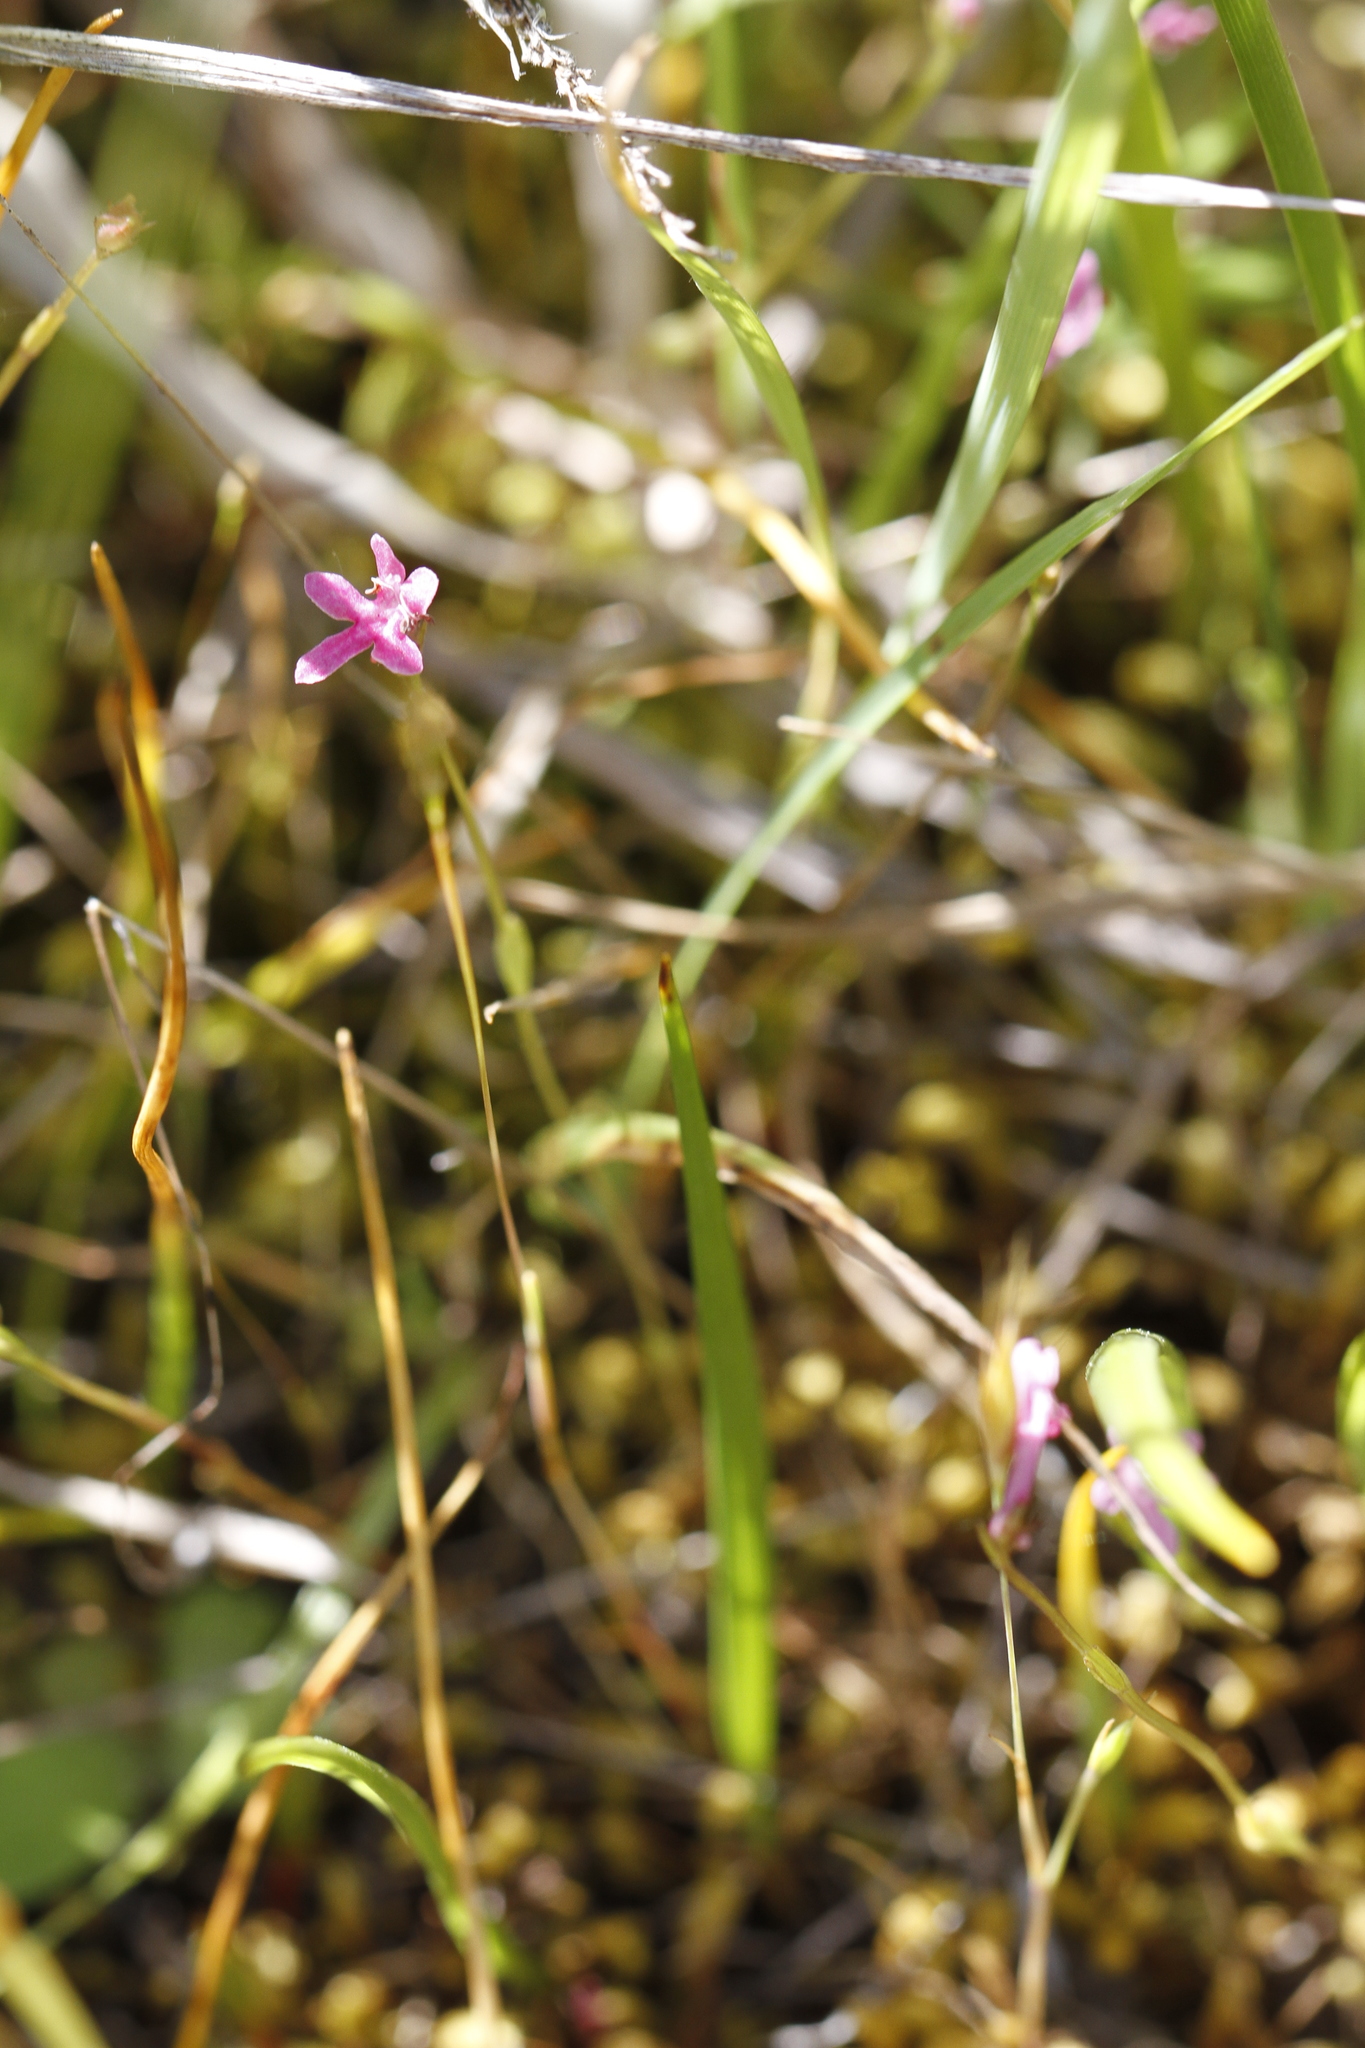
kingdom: Plantae
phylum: Tracheophyta
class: Magnoliopsida
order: Dipsacales
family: Caprifoliaceae
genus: Plectritis
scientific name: Plectritis congesta
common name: Pink plectritis
